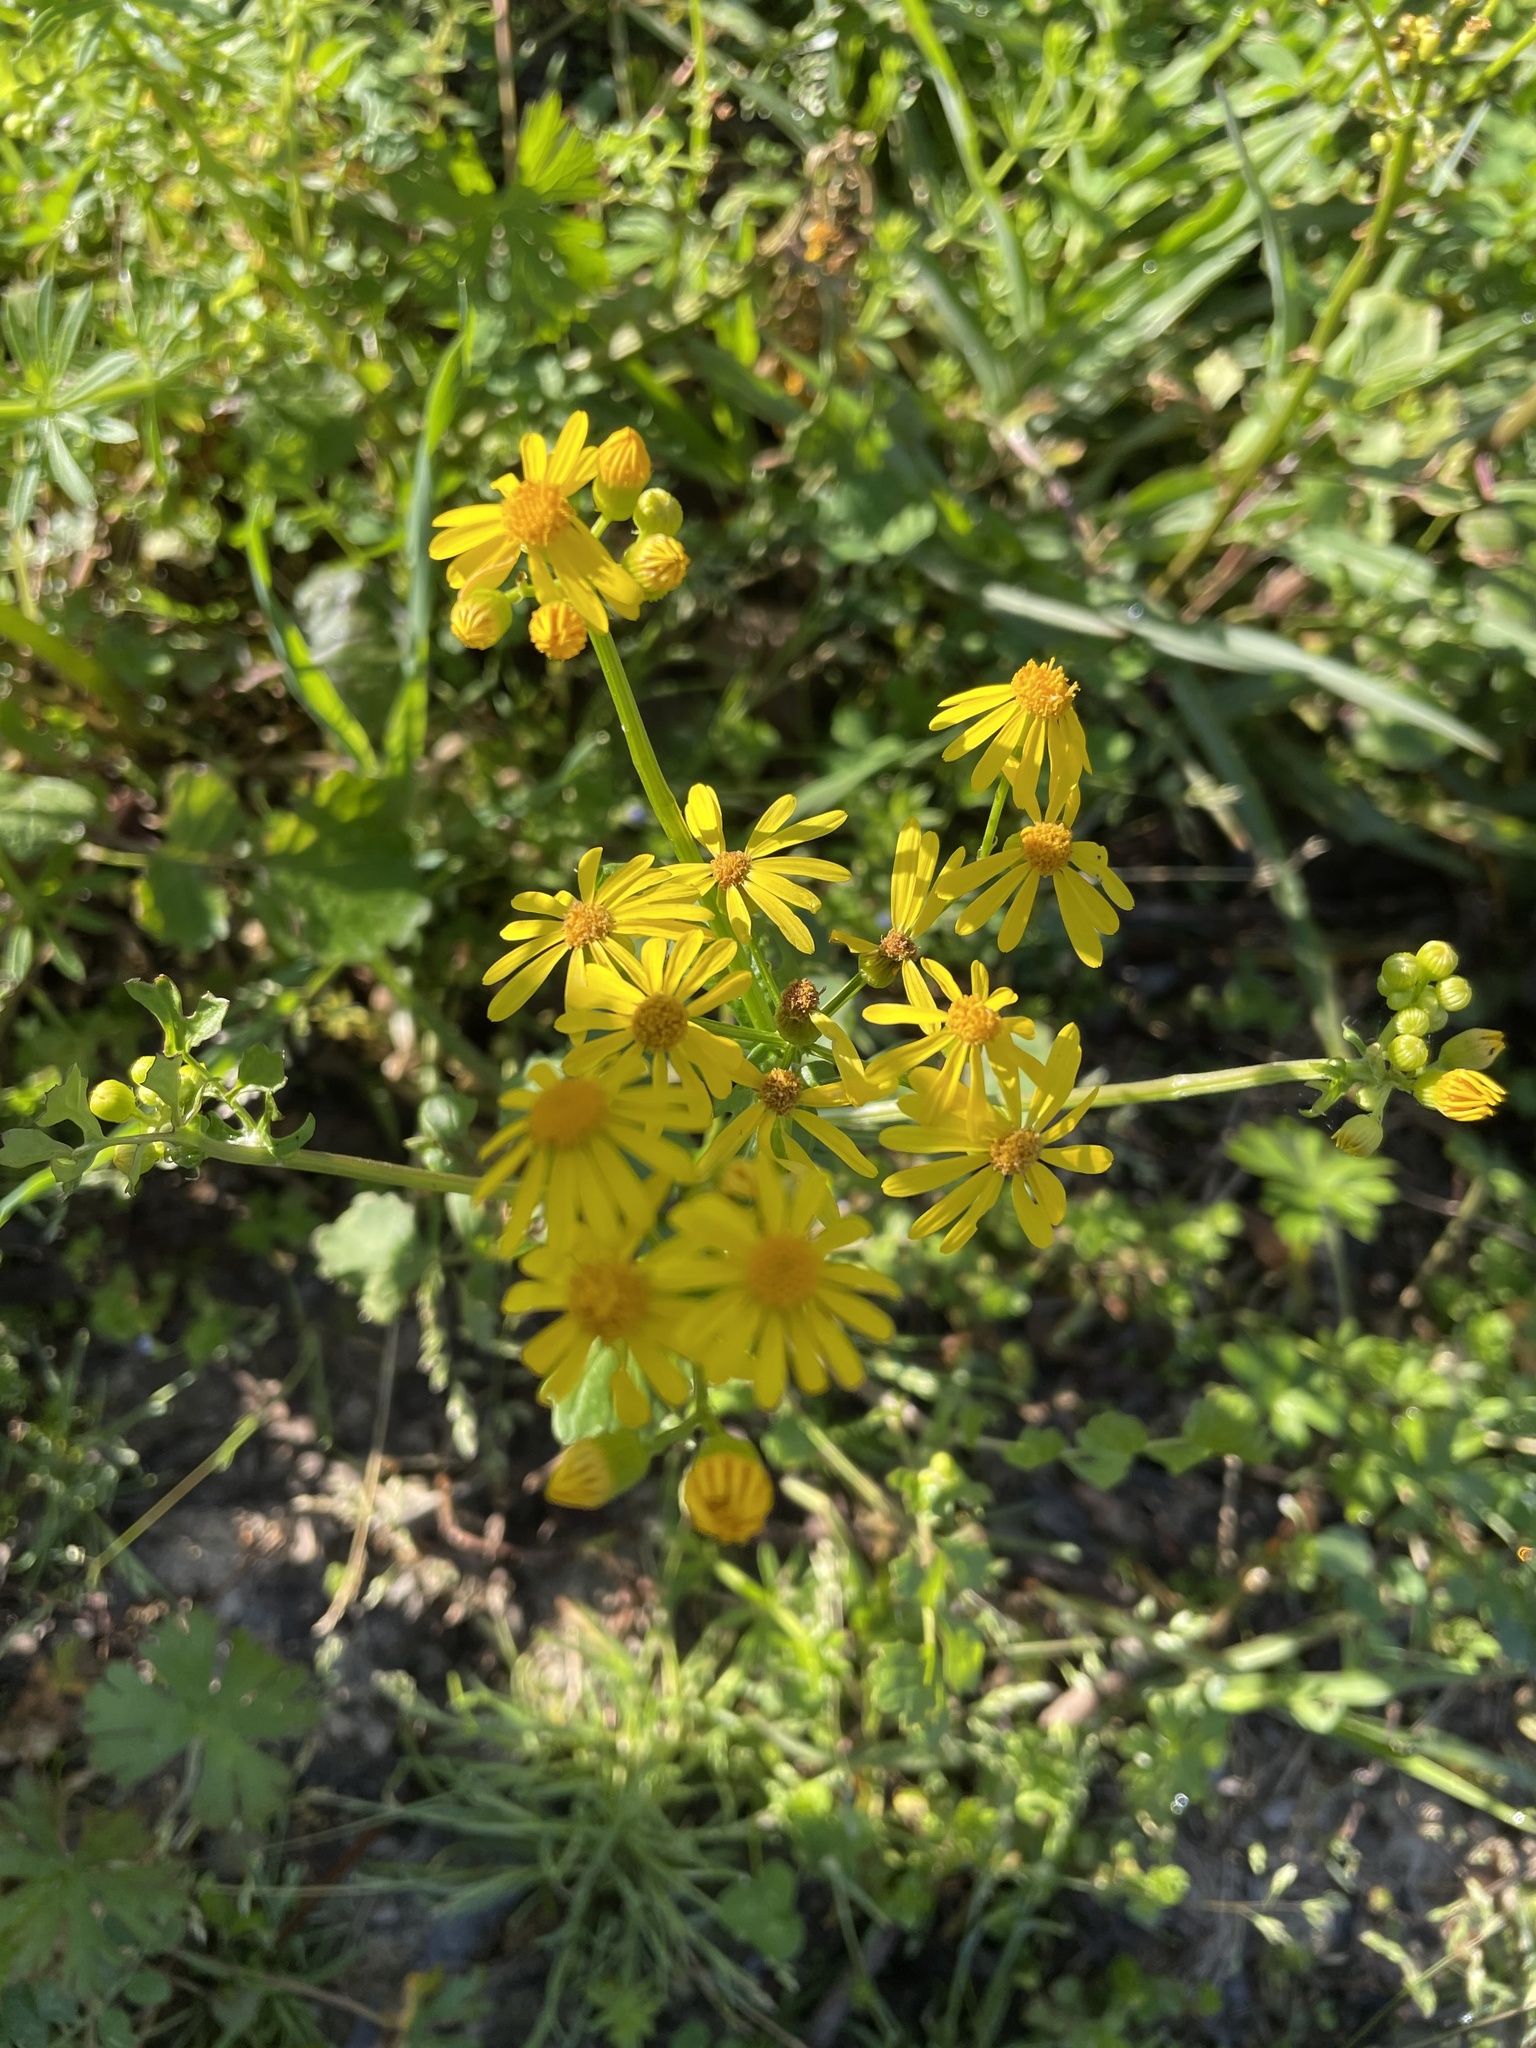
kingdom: Plantae
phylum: Tracheophyta
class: Magnoliopsida
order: Asterales
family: Asteraceae
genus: Packera
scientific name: Packera glabella
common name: Butterweed
